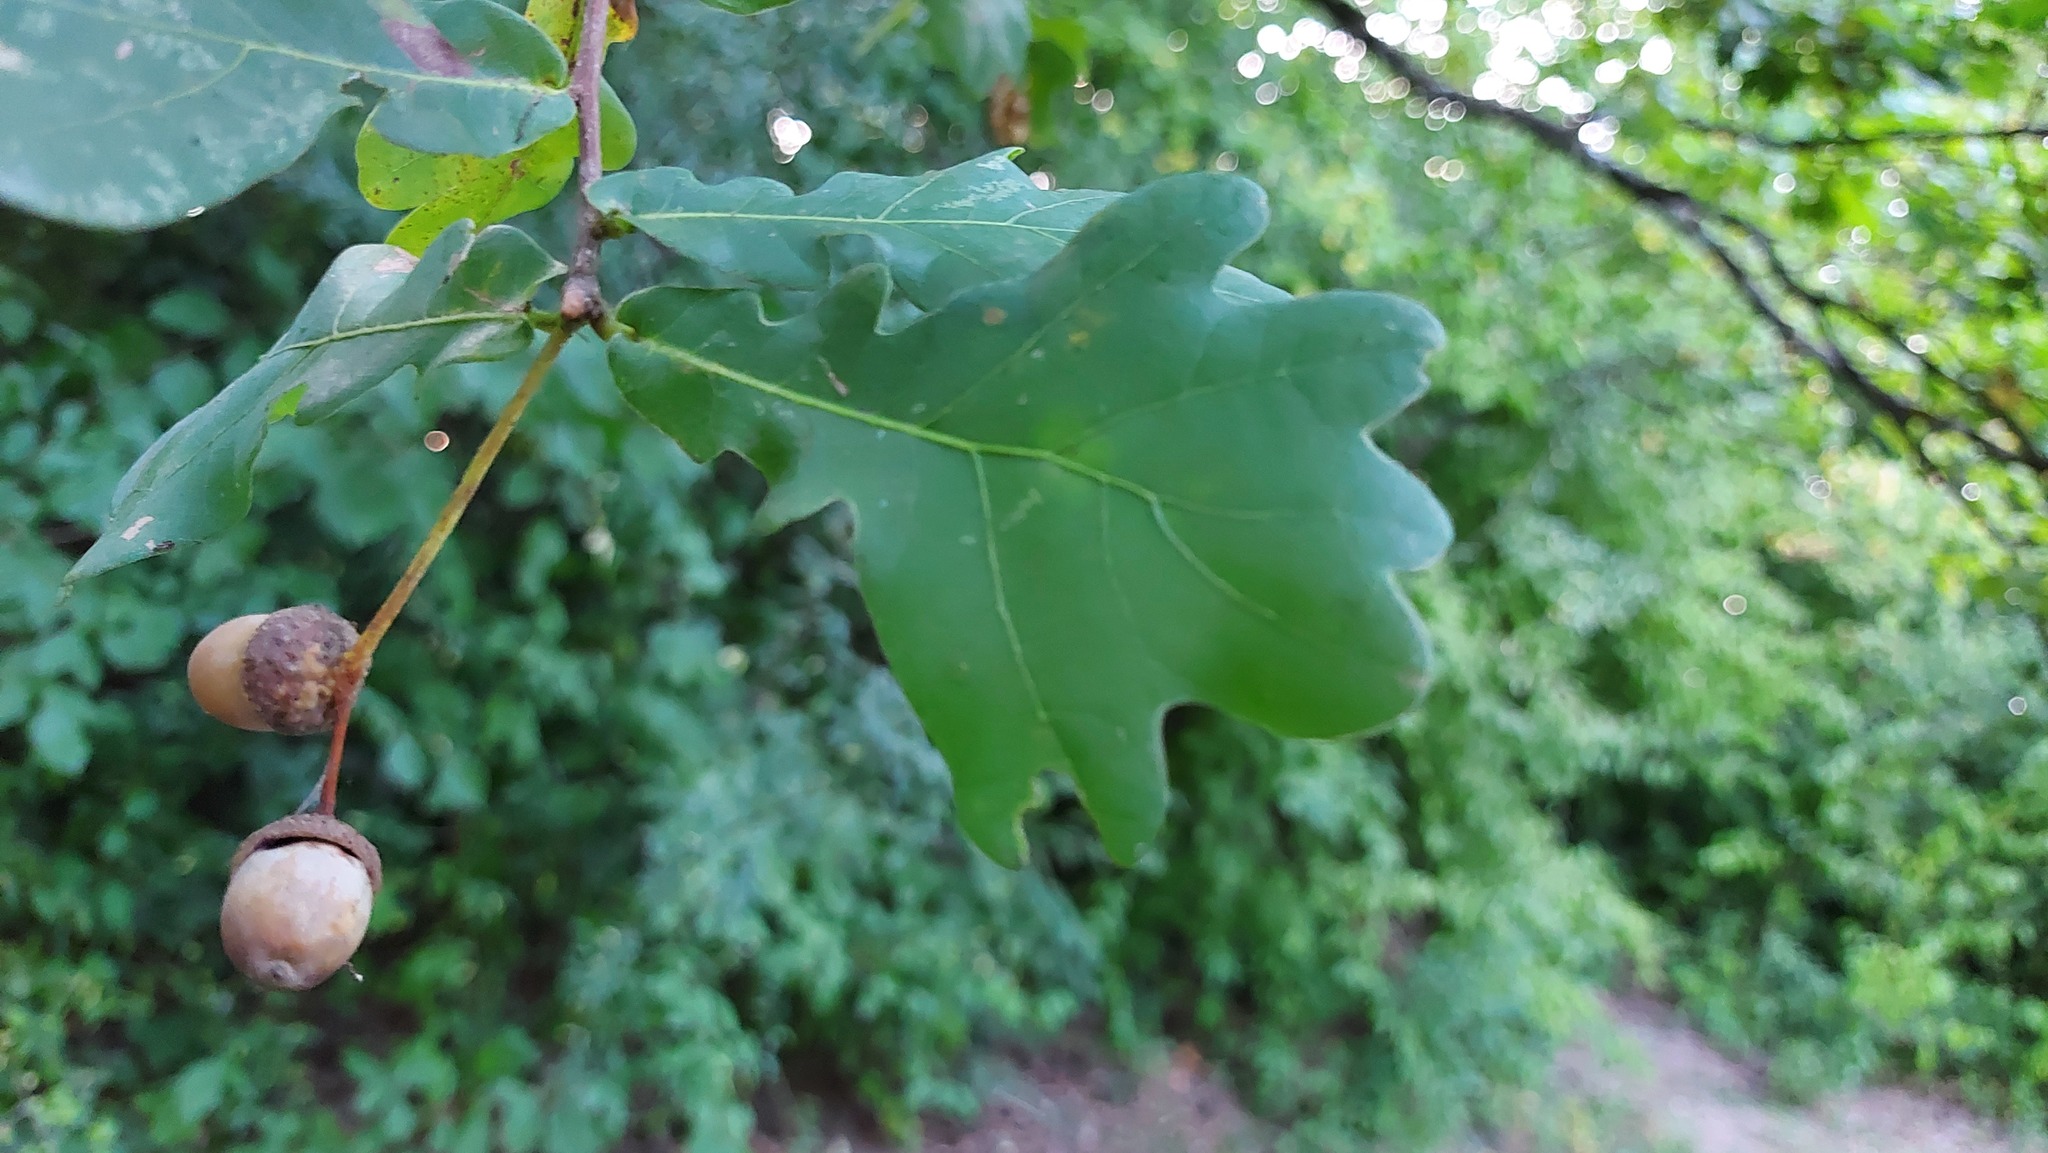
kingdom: Plantae
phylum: Tracheophyta
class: Magnoliopsida
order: Fagales
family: Fagaceae
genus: Quercus
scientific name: Quercus robur
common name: Pedunculate oak
